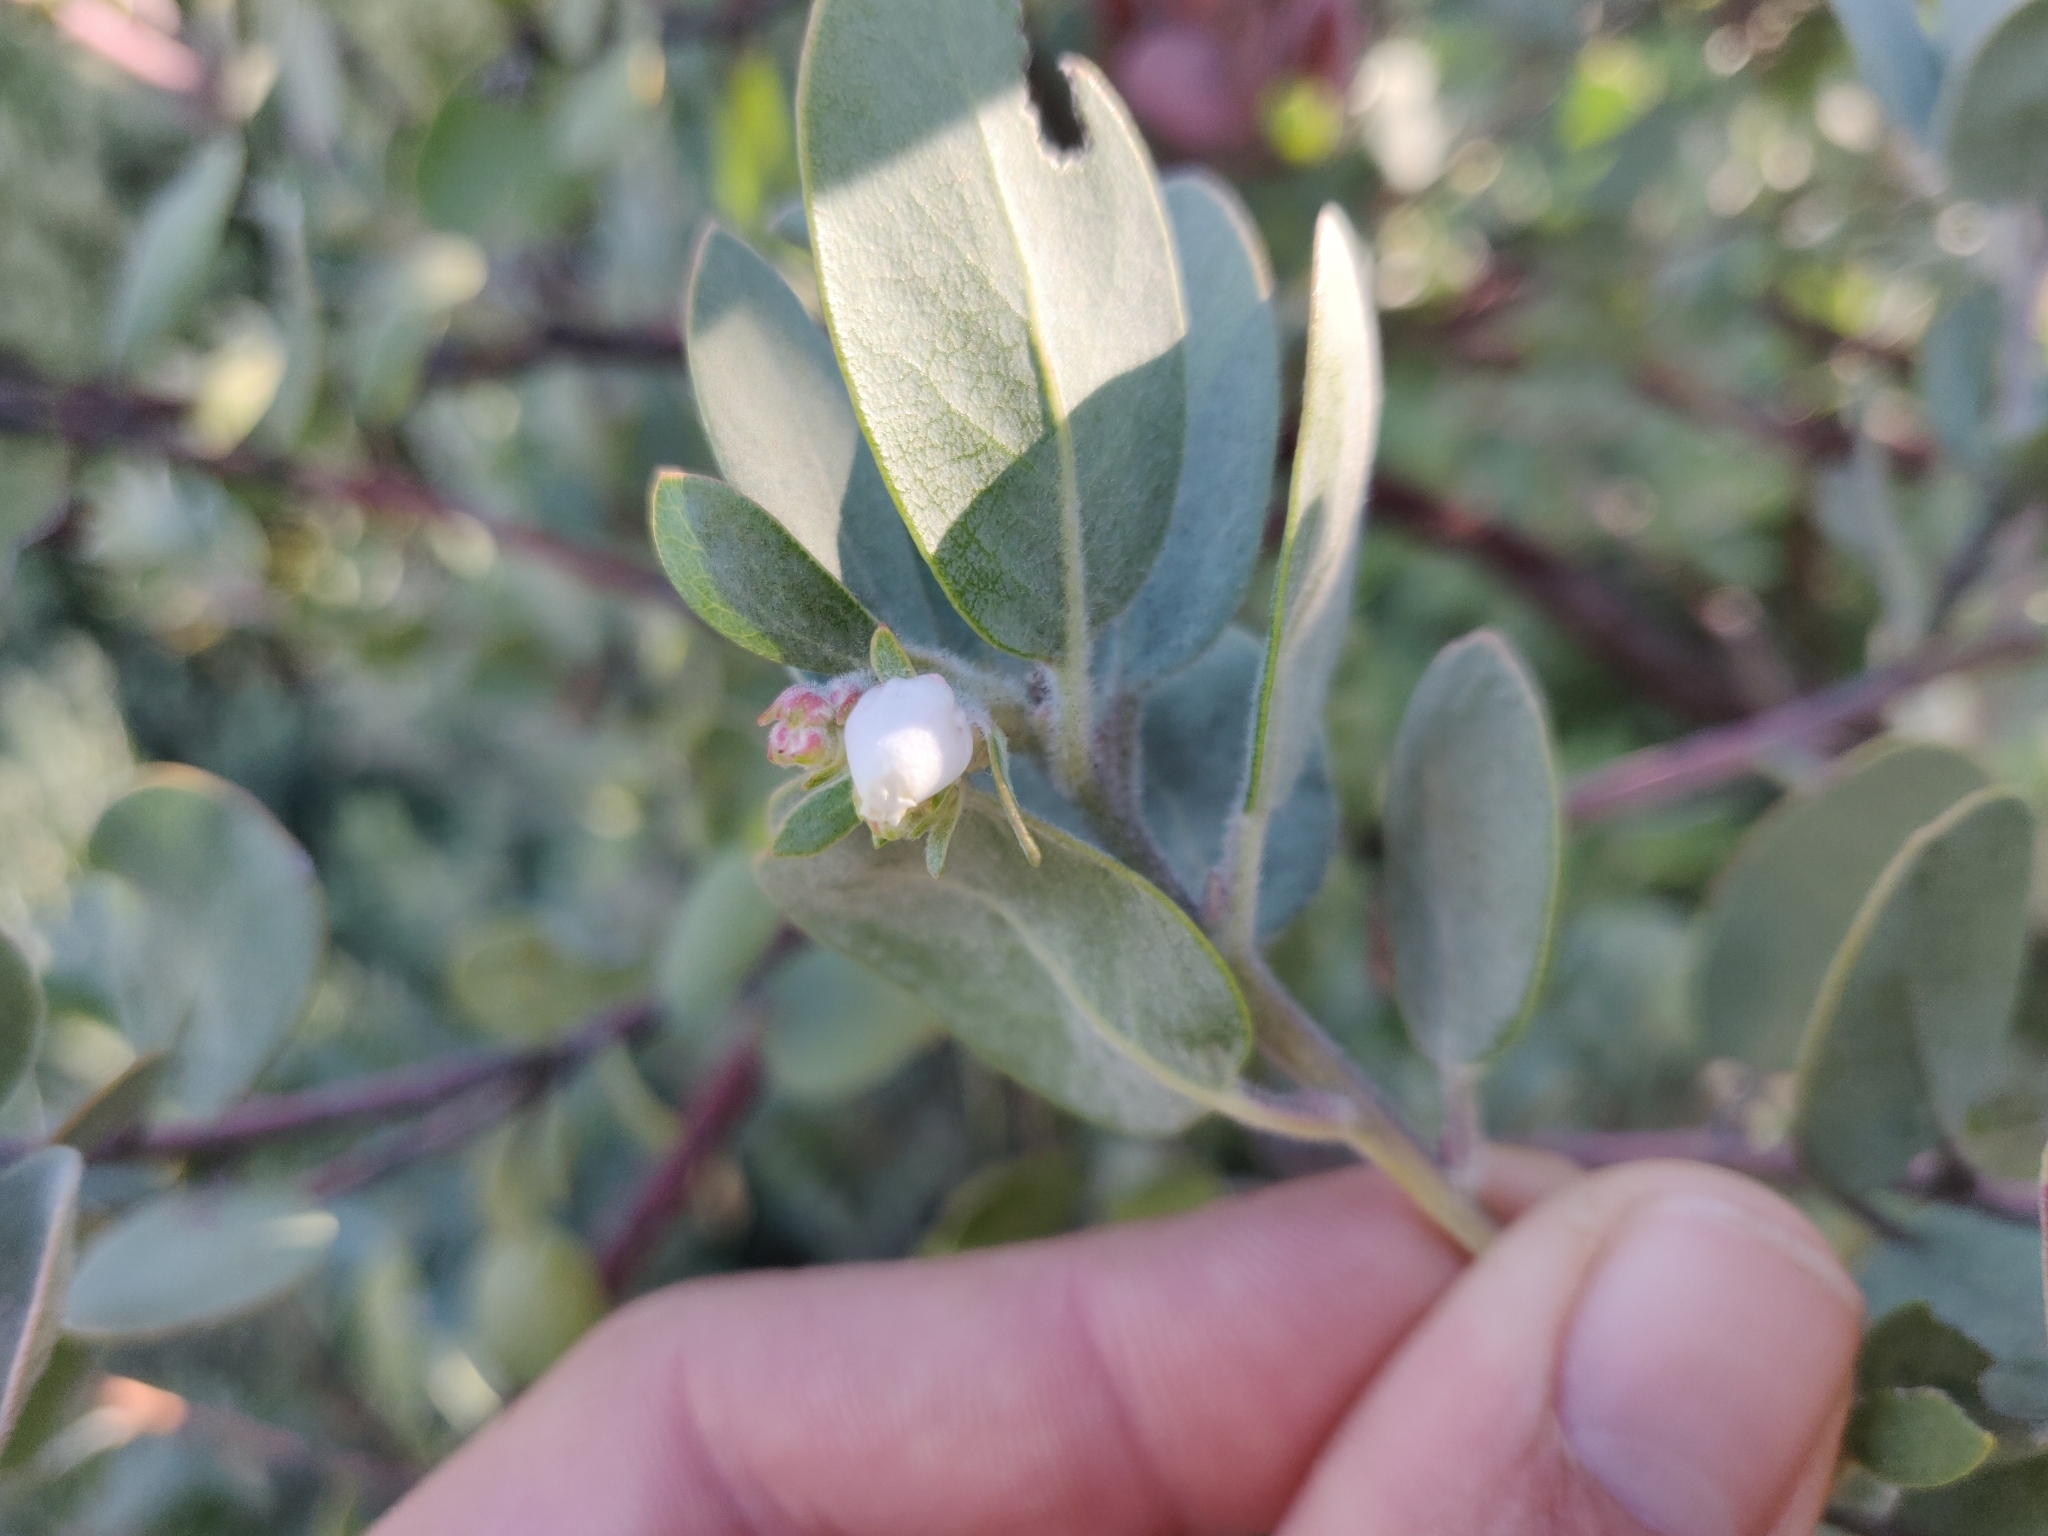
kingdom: Plantae
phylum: Tracheophyta
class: Magnoliopsida
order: Ericales
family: Ericaceae
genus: Arctostaphylos
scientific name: Arctostaphylos silvicola
